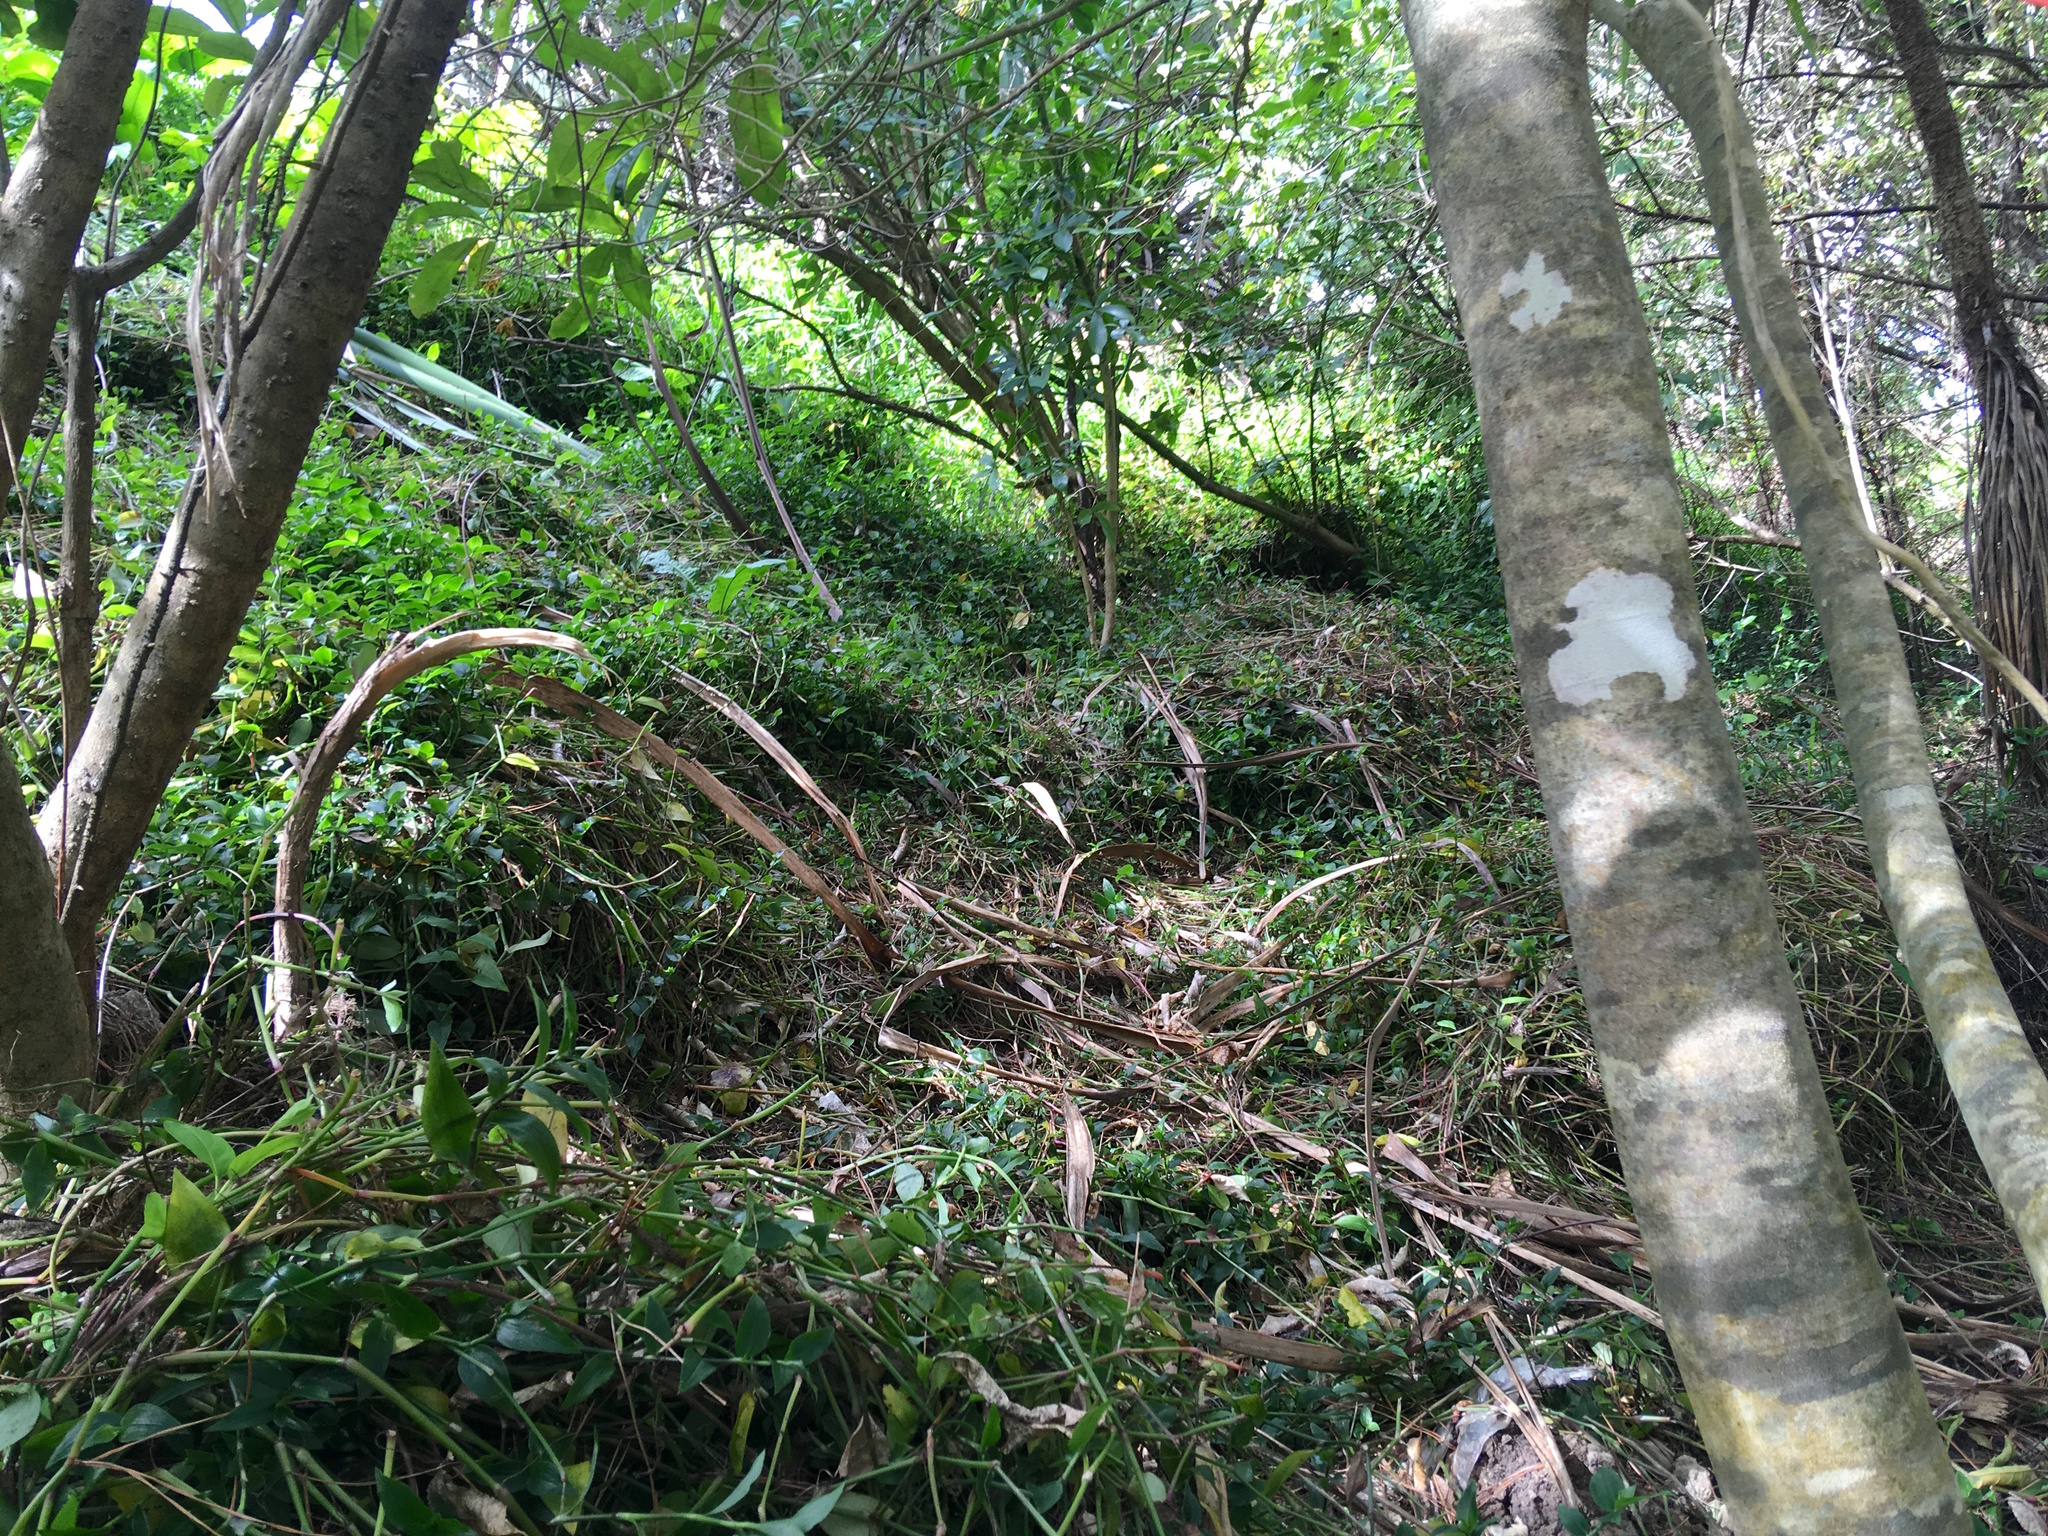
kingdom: Plantae
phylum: Tracheophyta
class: Liliopsida
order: Commelinales
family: Commelinaceae
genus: Tradescantia
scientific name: Tradescantia fluminensis
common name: Wandering-jew
